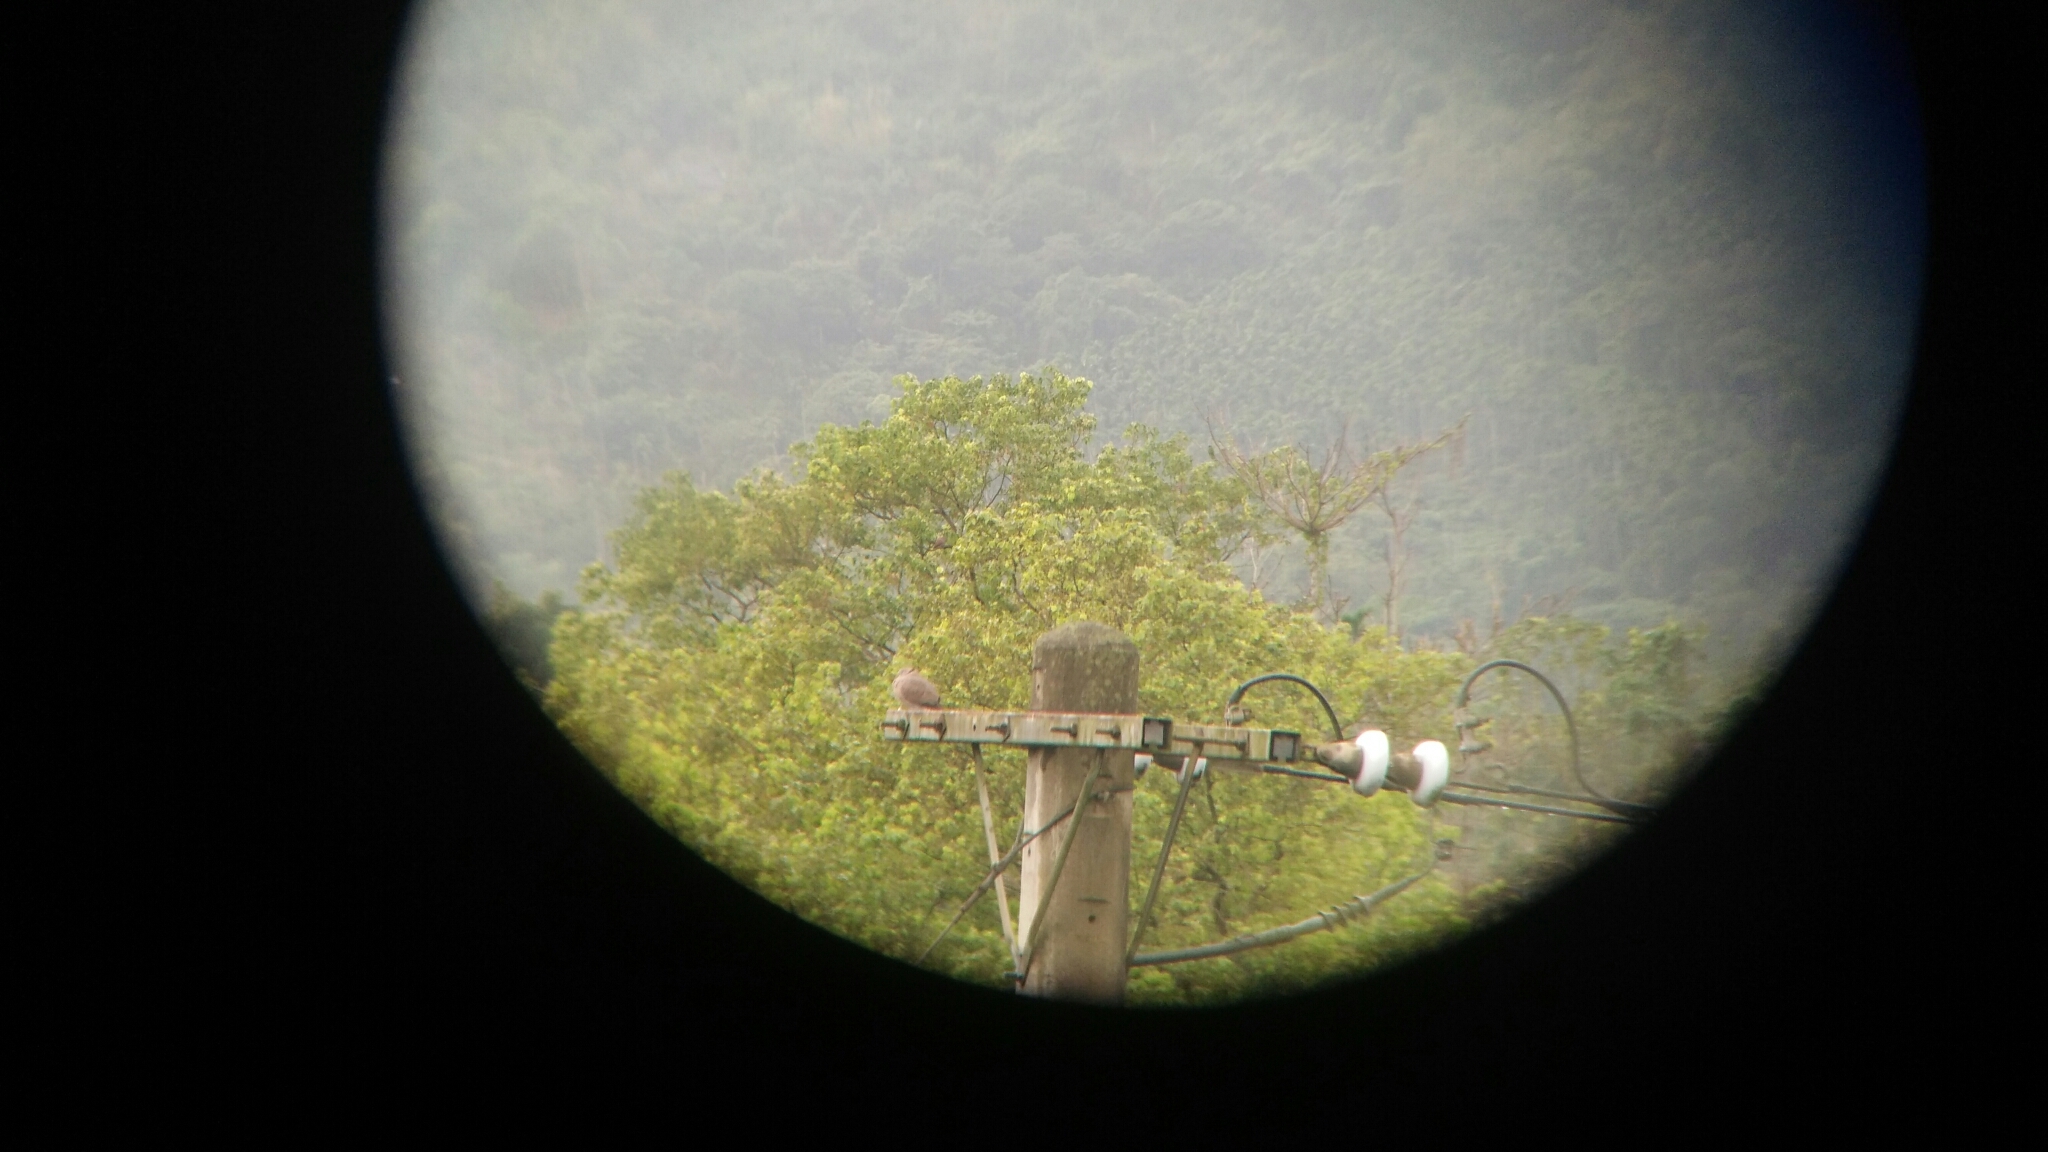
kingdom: Animalia
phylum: Chordata
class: Aves
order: Columbiformes
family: Columbidae
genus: Streptopelia
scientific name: Streptopelia tranquebarica
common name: Red turtle dove
